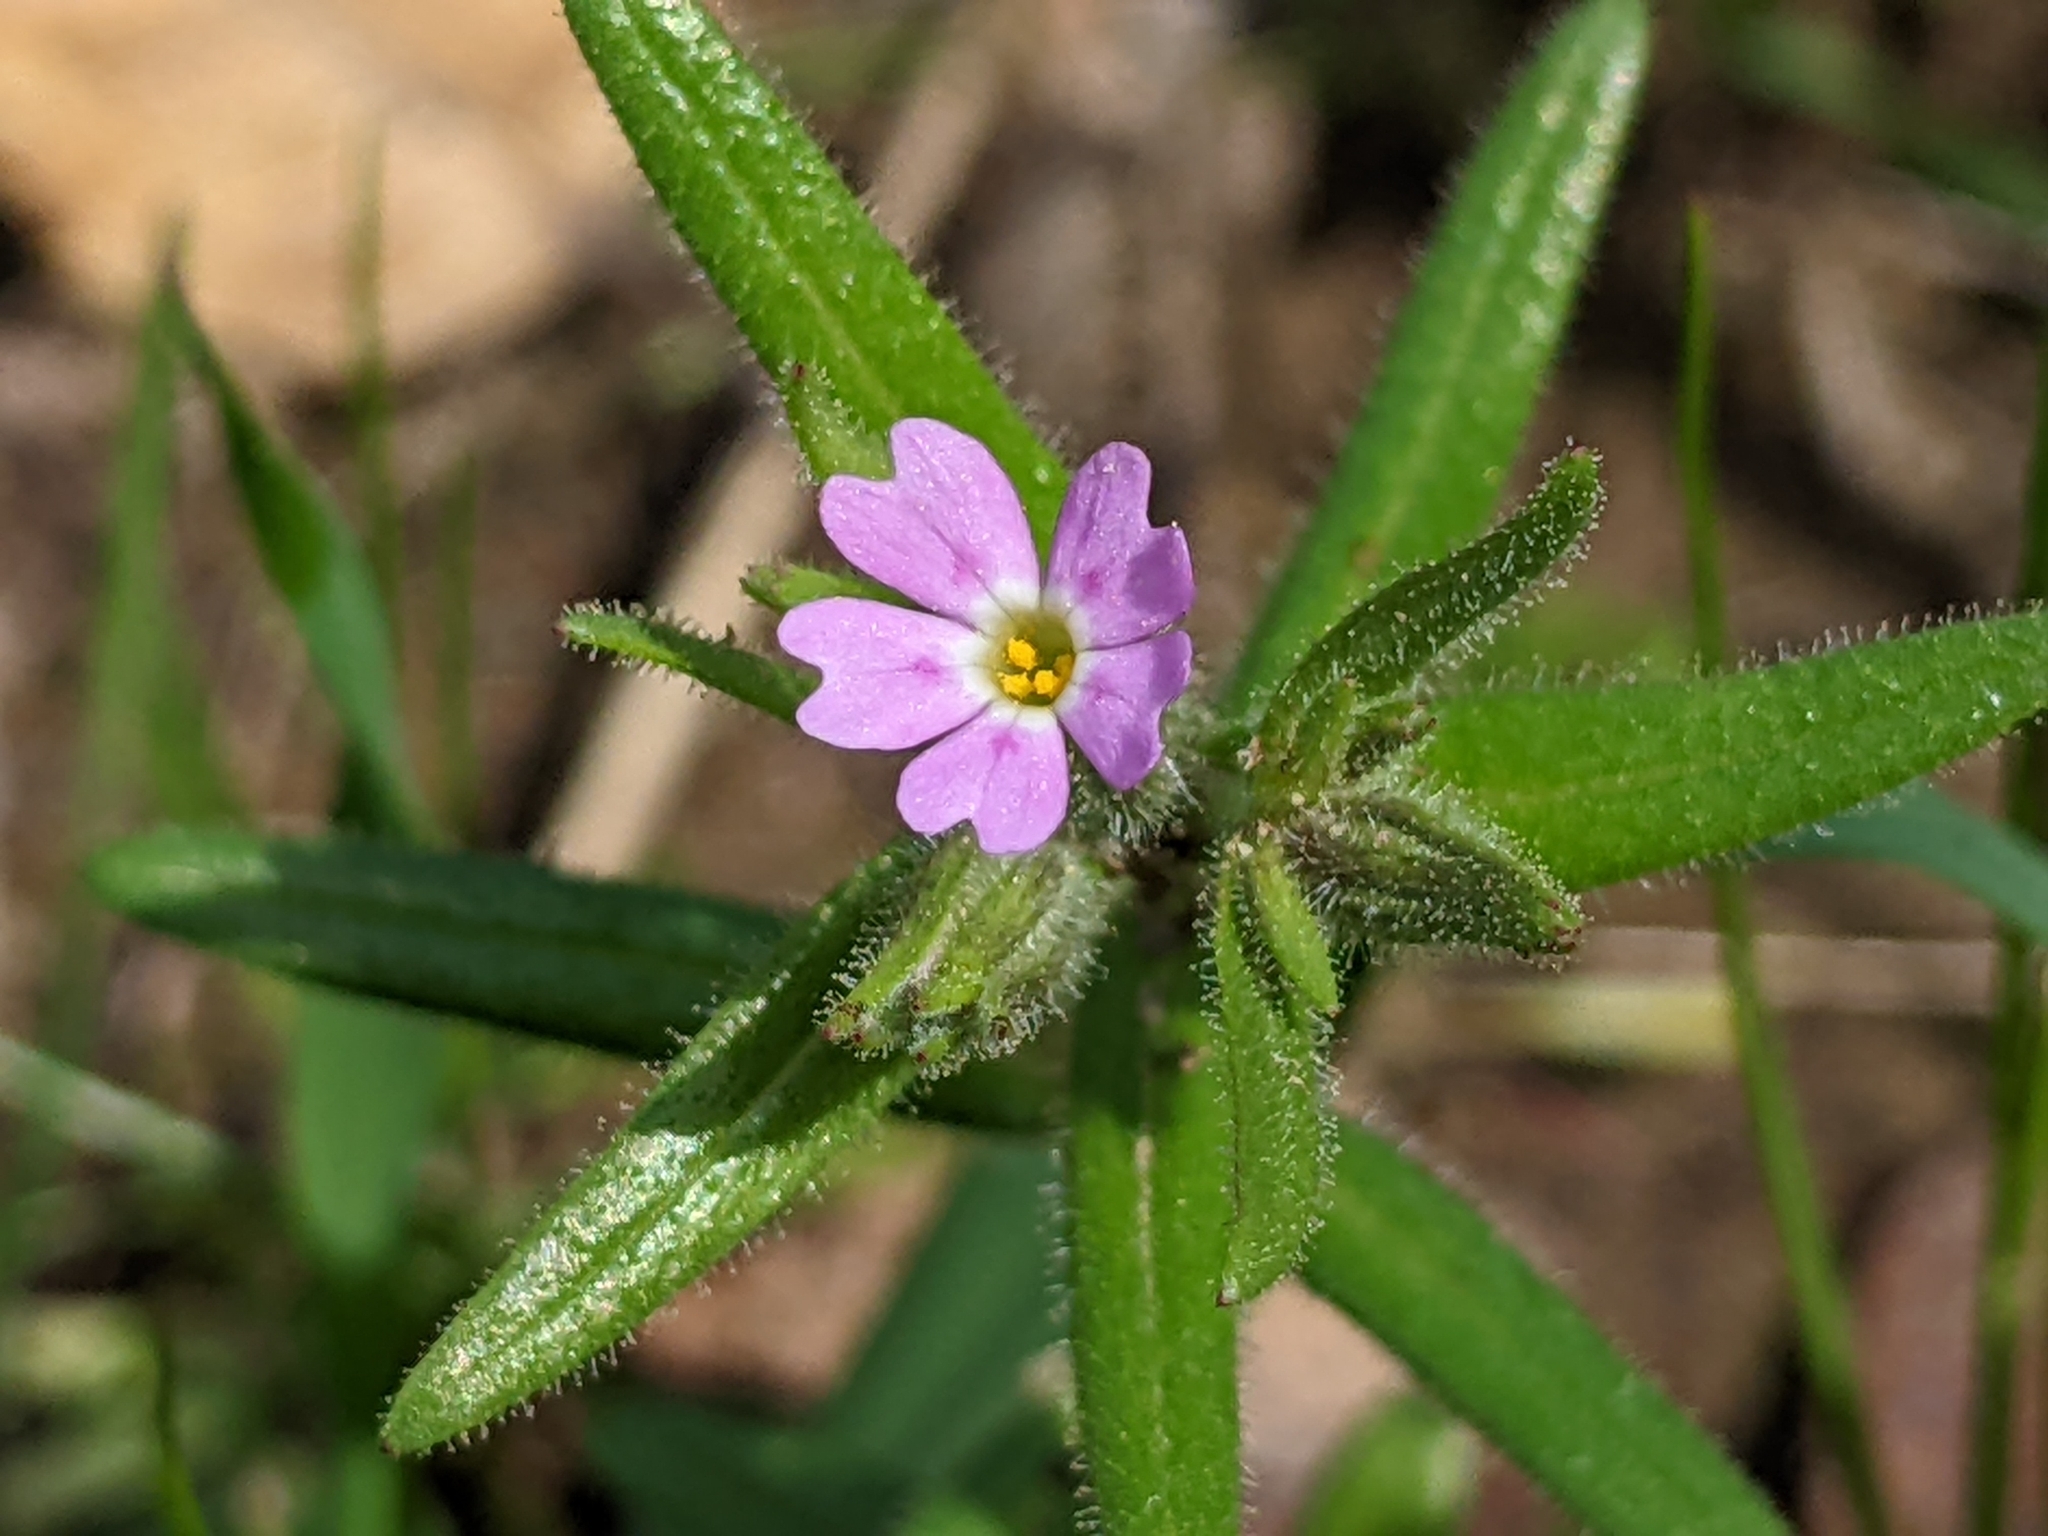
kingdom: Plantae
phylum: Tracheophyta
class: Magnoliopsida
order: Ericales
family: Polemoniaceae
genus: Phlox
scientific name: Phlox gracilis
